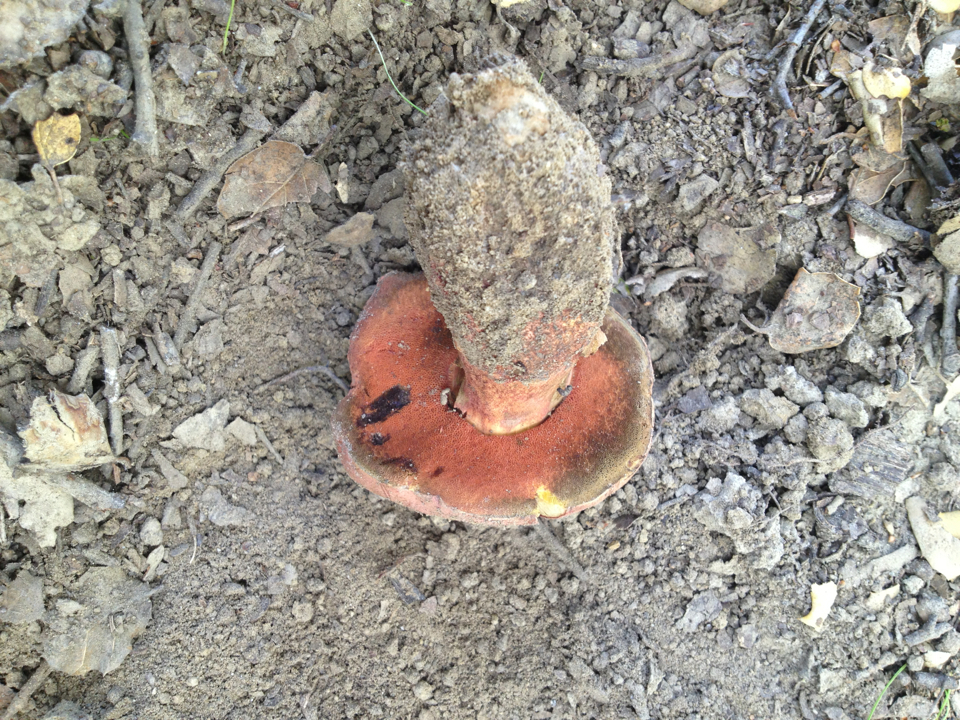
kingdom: Fungi
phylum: Basidiomycota
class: Agaricomycetes
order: Boletales
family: Boletaceae
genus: Suillellus
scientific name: Suillellus amygdalinus
